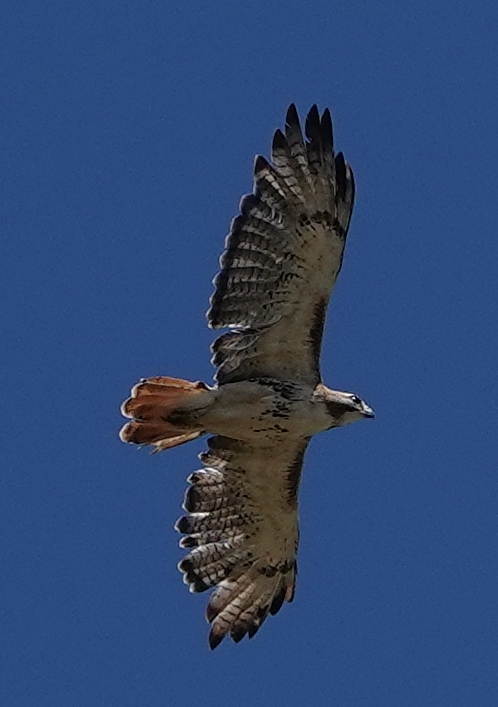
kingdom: Animalia
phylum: Chordata
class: Aves
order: Accipitriformes
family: Accipitridae
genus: Buteo
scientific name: Buteo jamaicensis
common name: Red-tailed hawk
